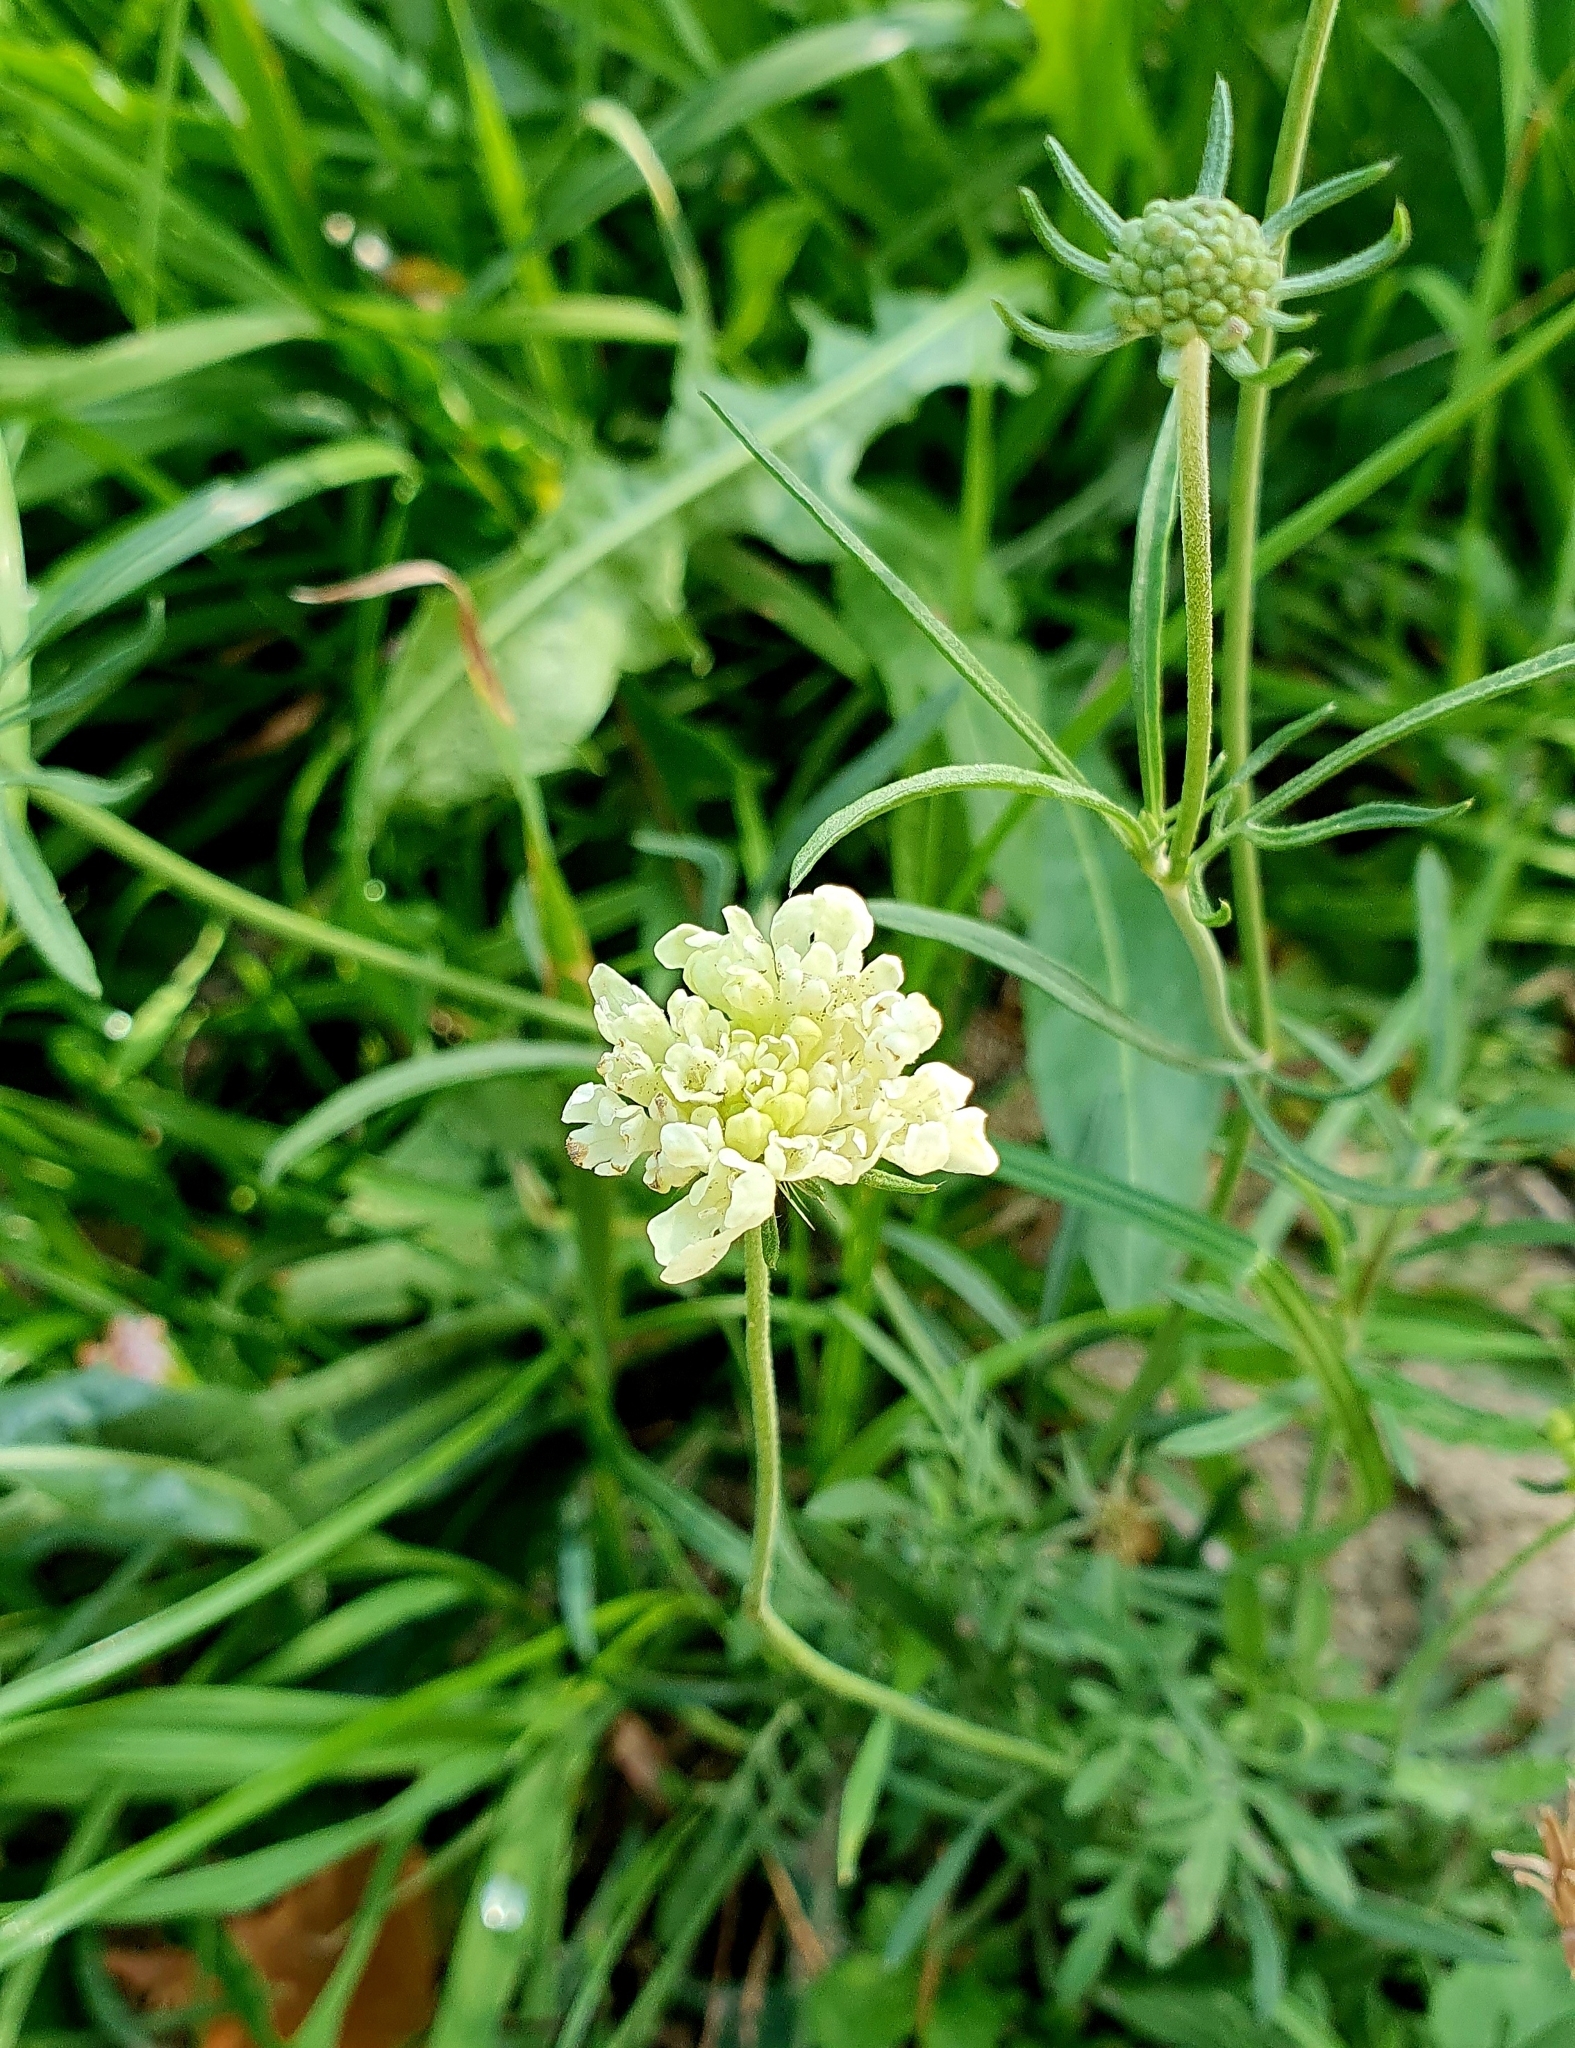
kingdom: Plantae
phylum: Tracheophyta
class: Magnoliopsida
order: Dipsacales
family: Caprifoliaceae
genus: Scabiosa
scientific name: Scabiosa ochroleuca
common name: Cream pincushions
